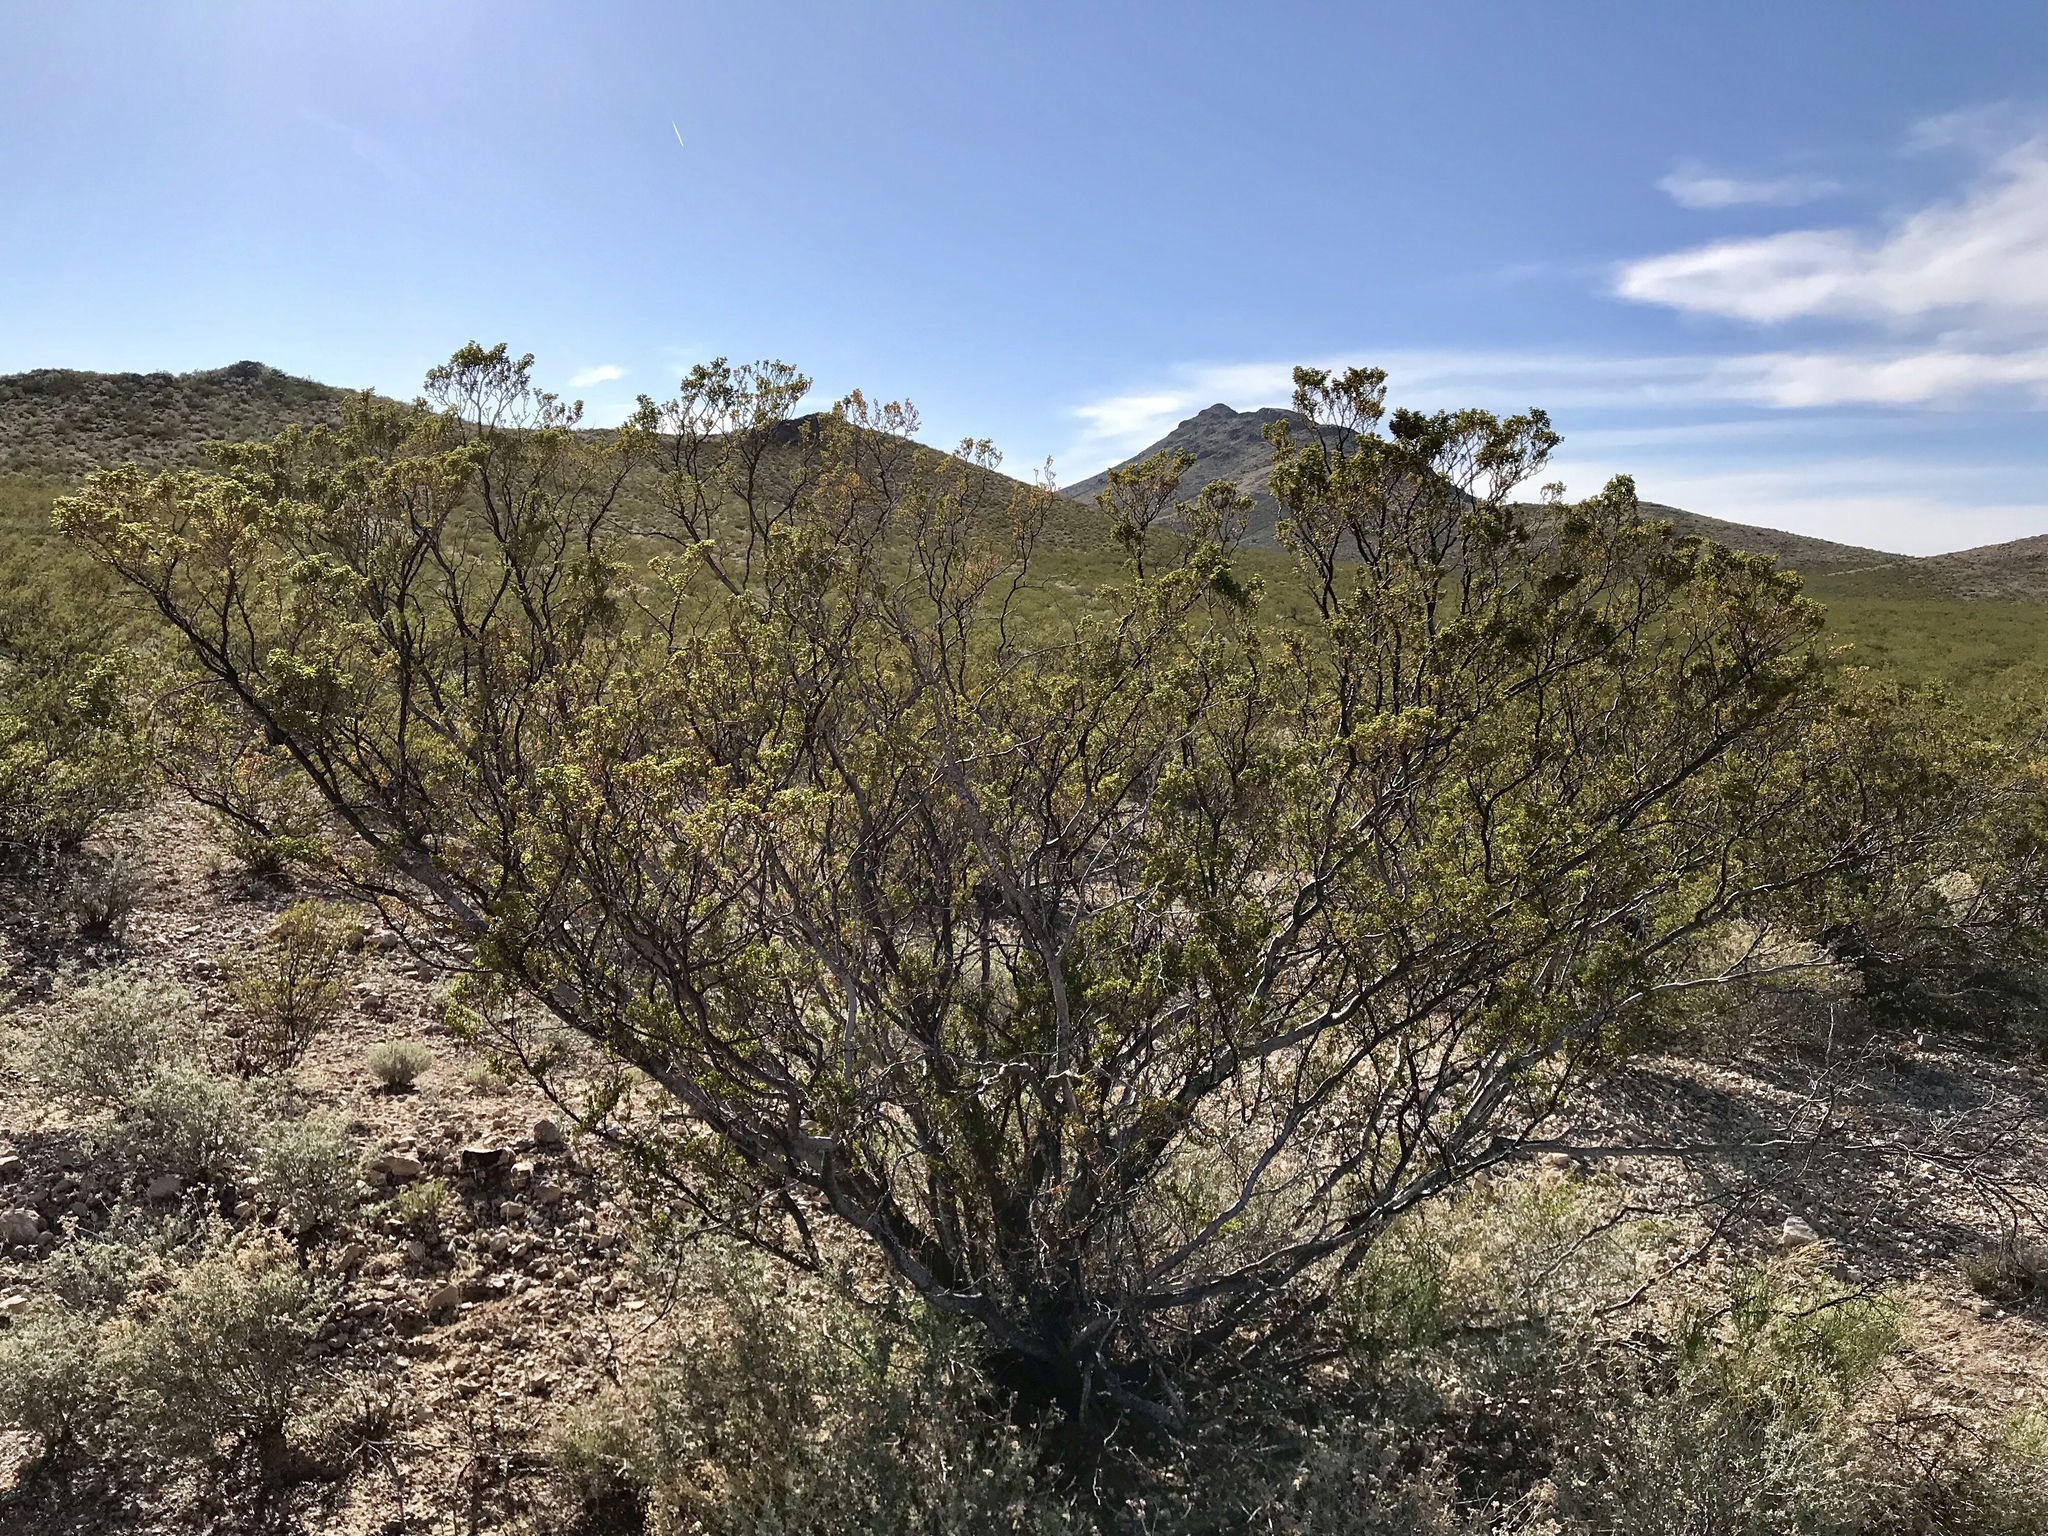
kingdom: Plantae
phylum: Tracheophyta
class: Magnoliopsida
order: Zygophyllales
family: Zygophyllaceae
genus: Larrea
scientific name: Larrea tridentata
